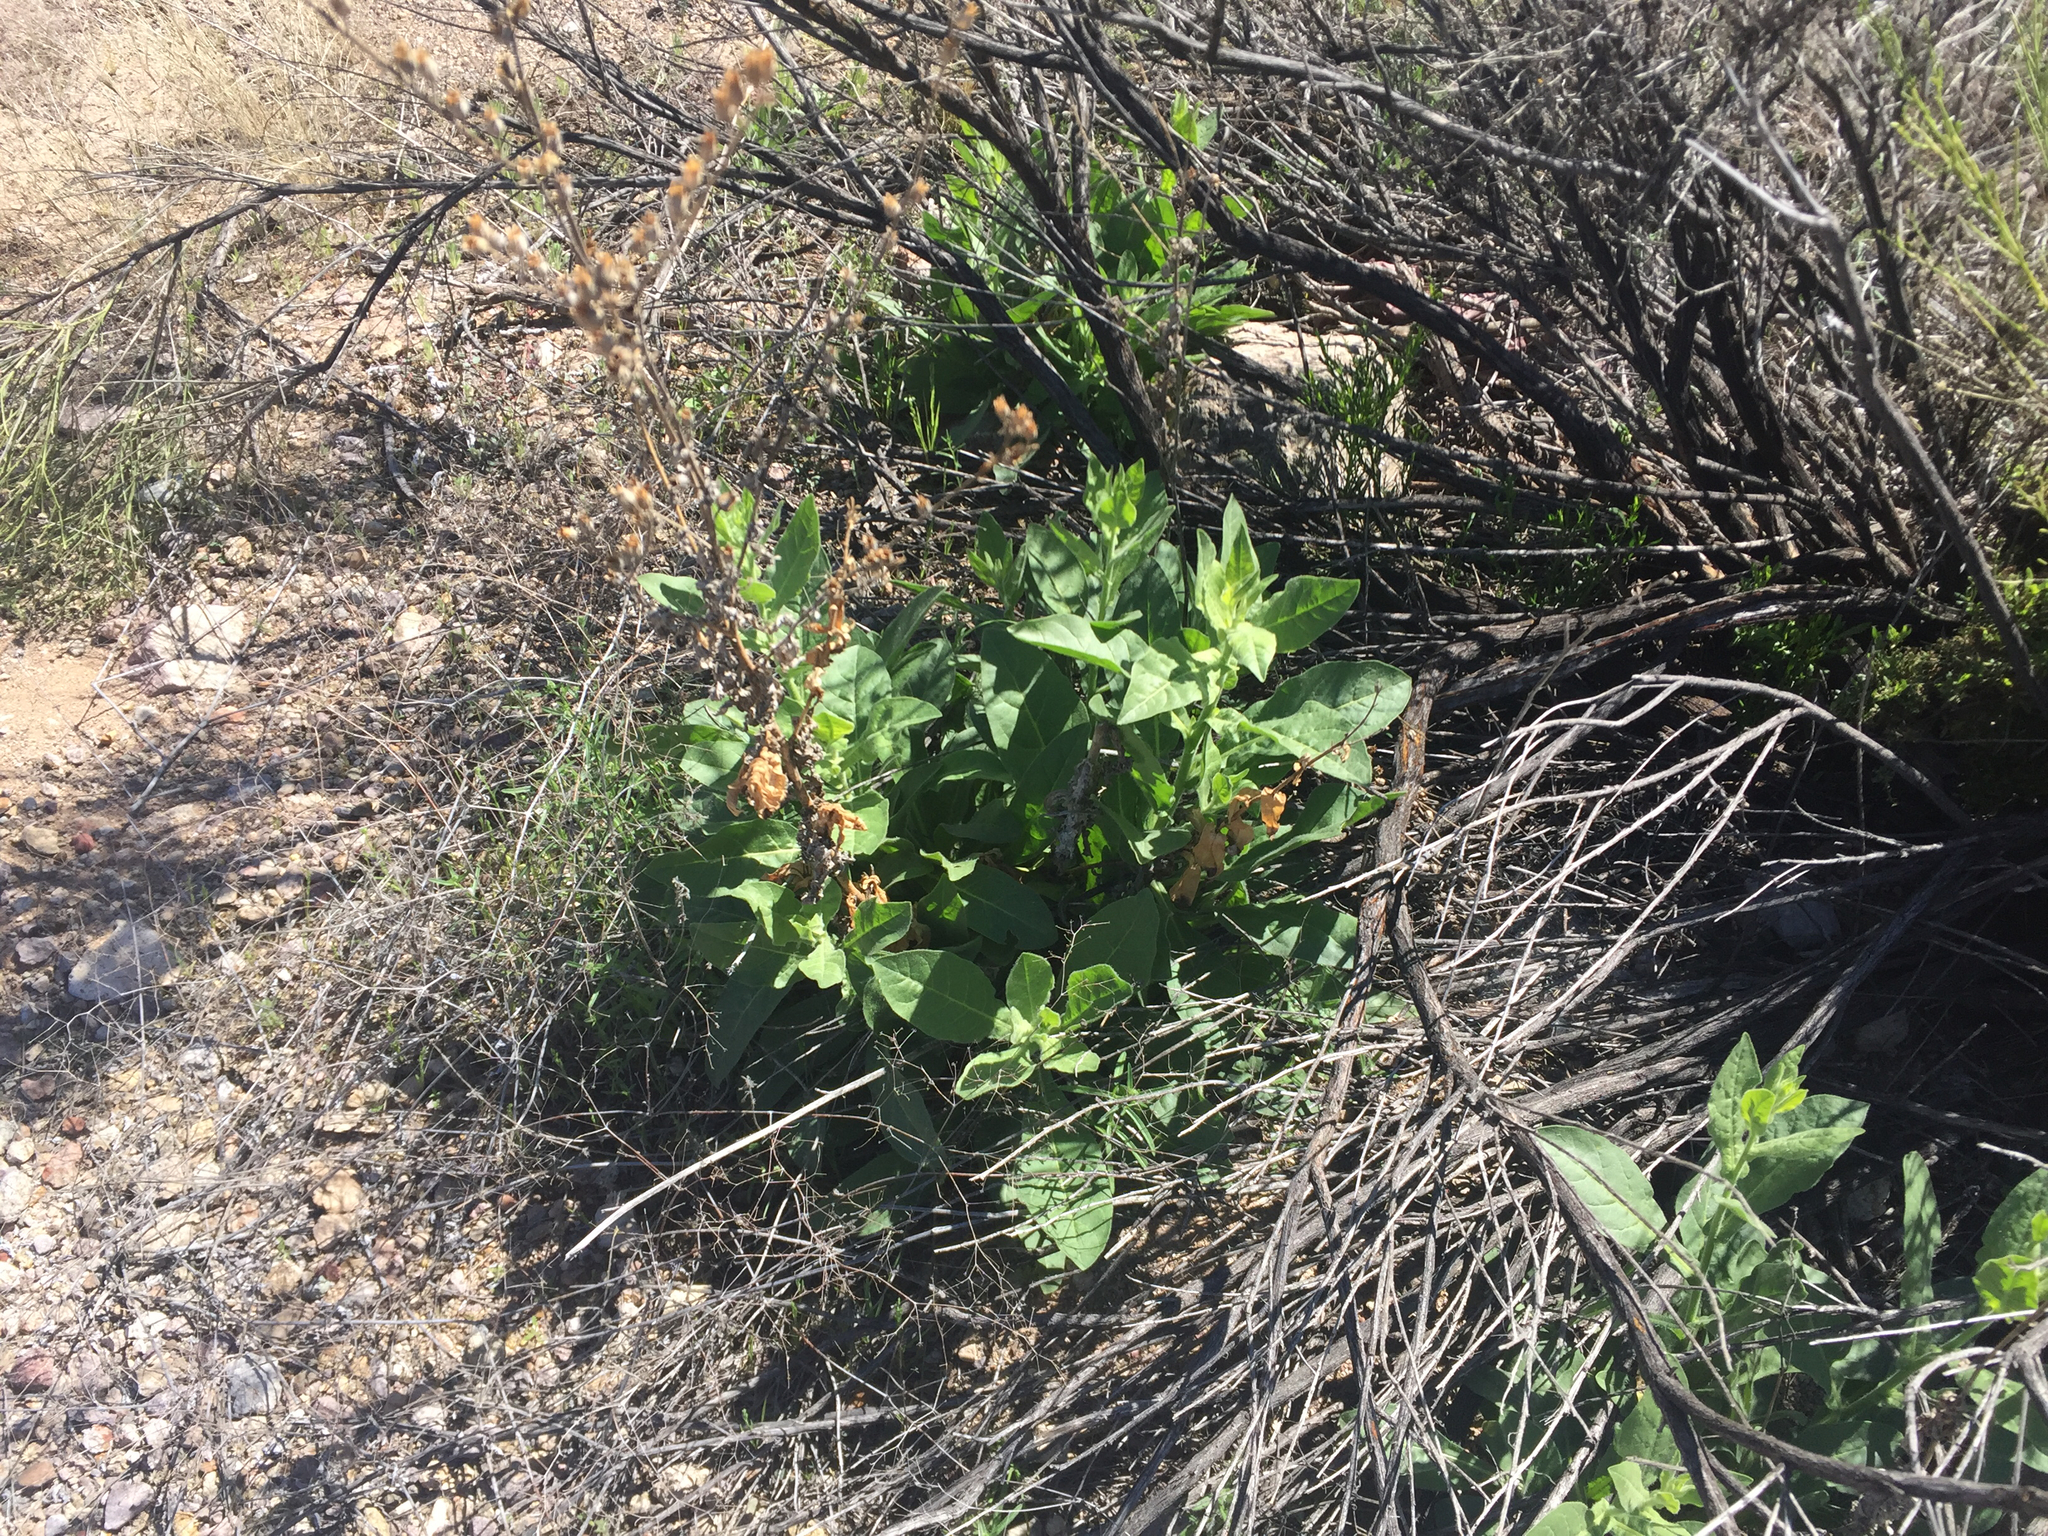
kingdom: Plantae
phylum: Tracheophyta
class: Magnoliopsida
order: Solanales
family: Solanaceae
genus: Nicotiana
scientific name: Nicotiana obtusifolia
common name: Desert tobacco
